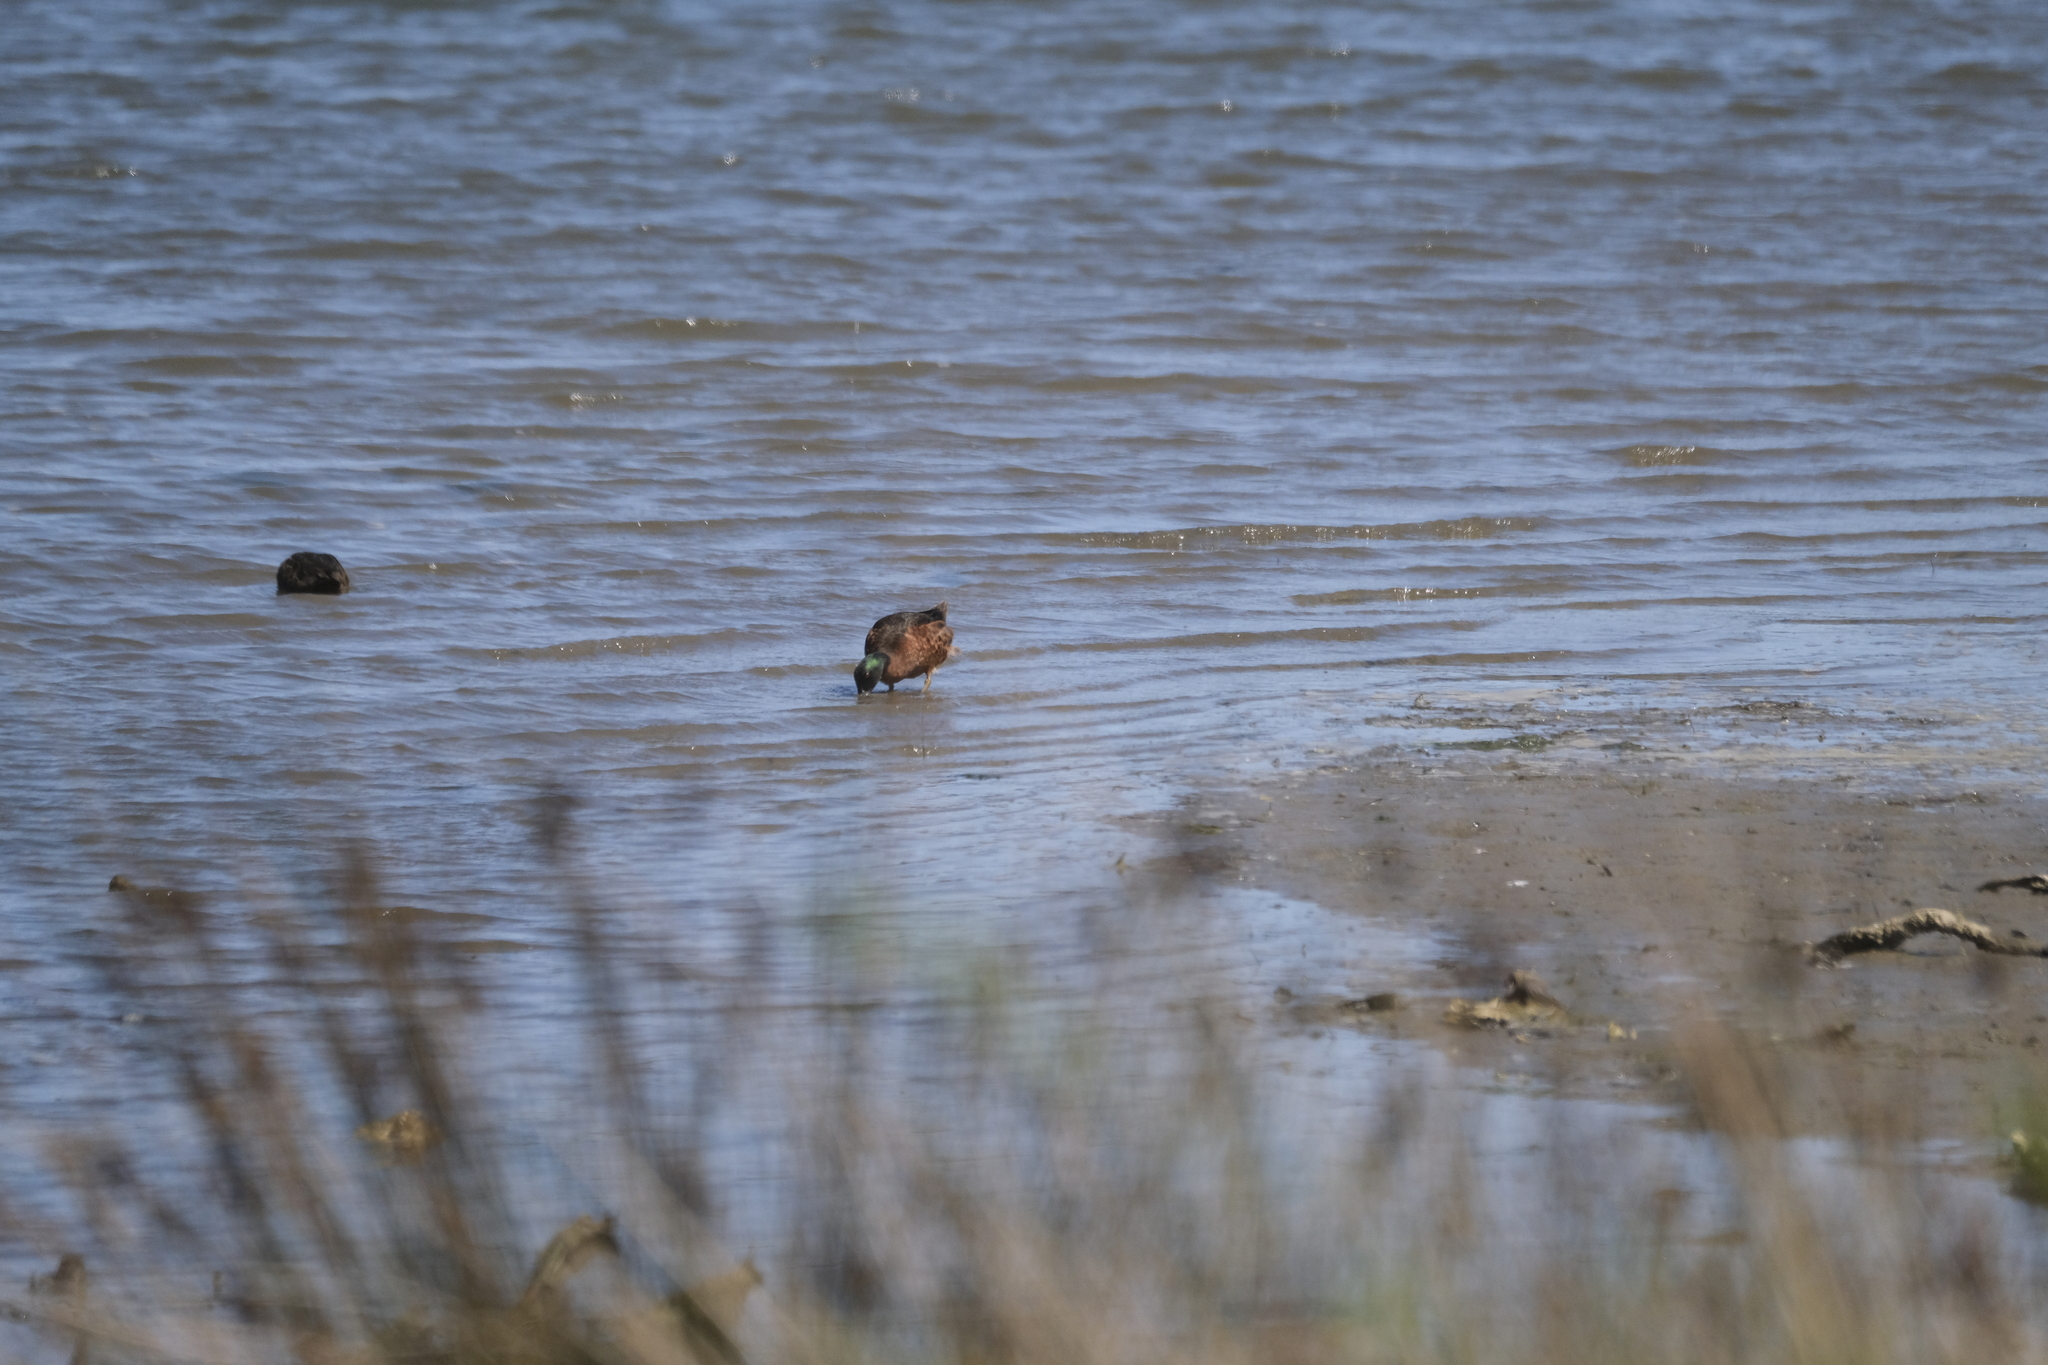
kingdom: Animalia
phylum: Chordata
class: Aves
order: Anseriformes
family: Anatidae
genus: Anas
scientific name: Anas castanea
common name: Chestnut teal
